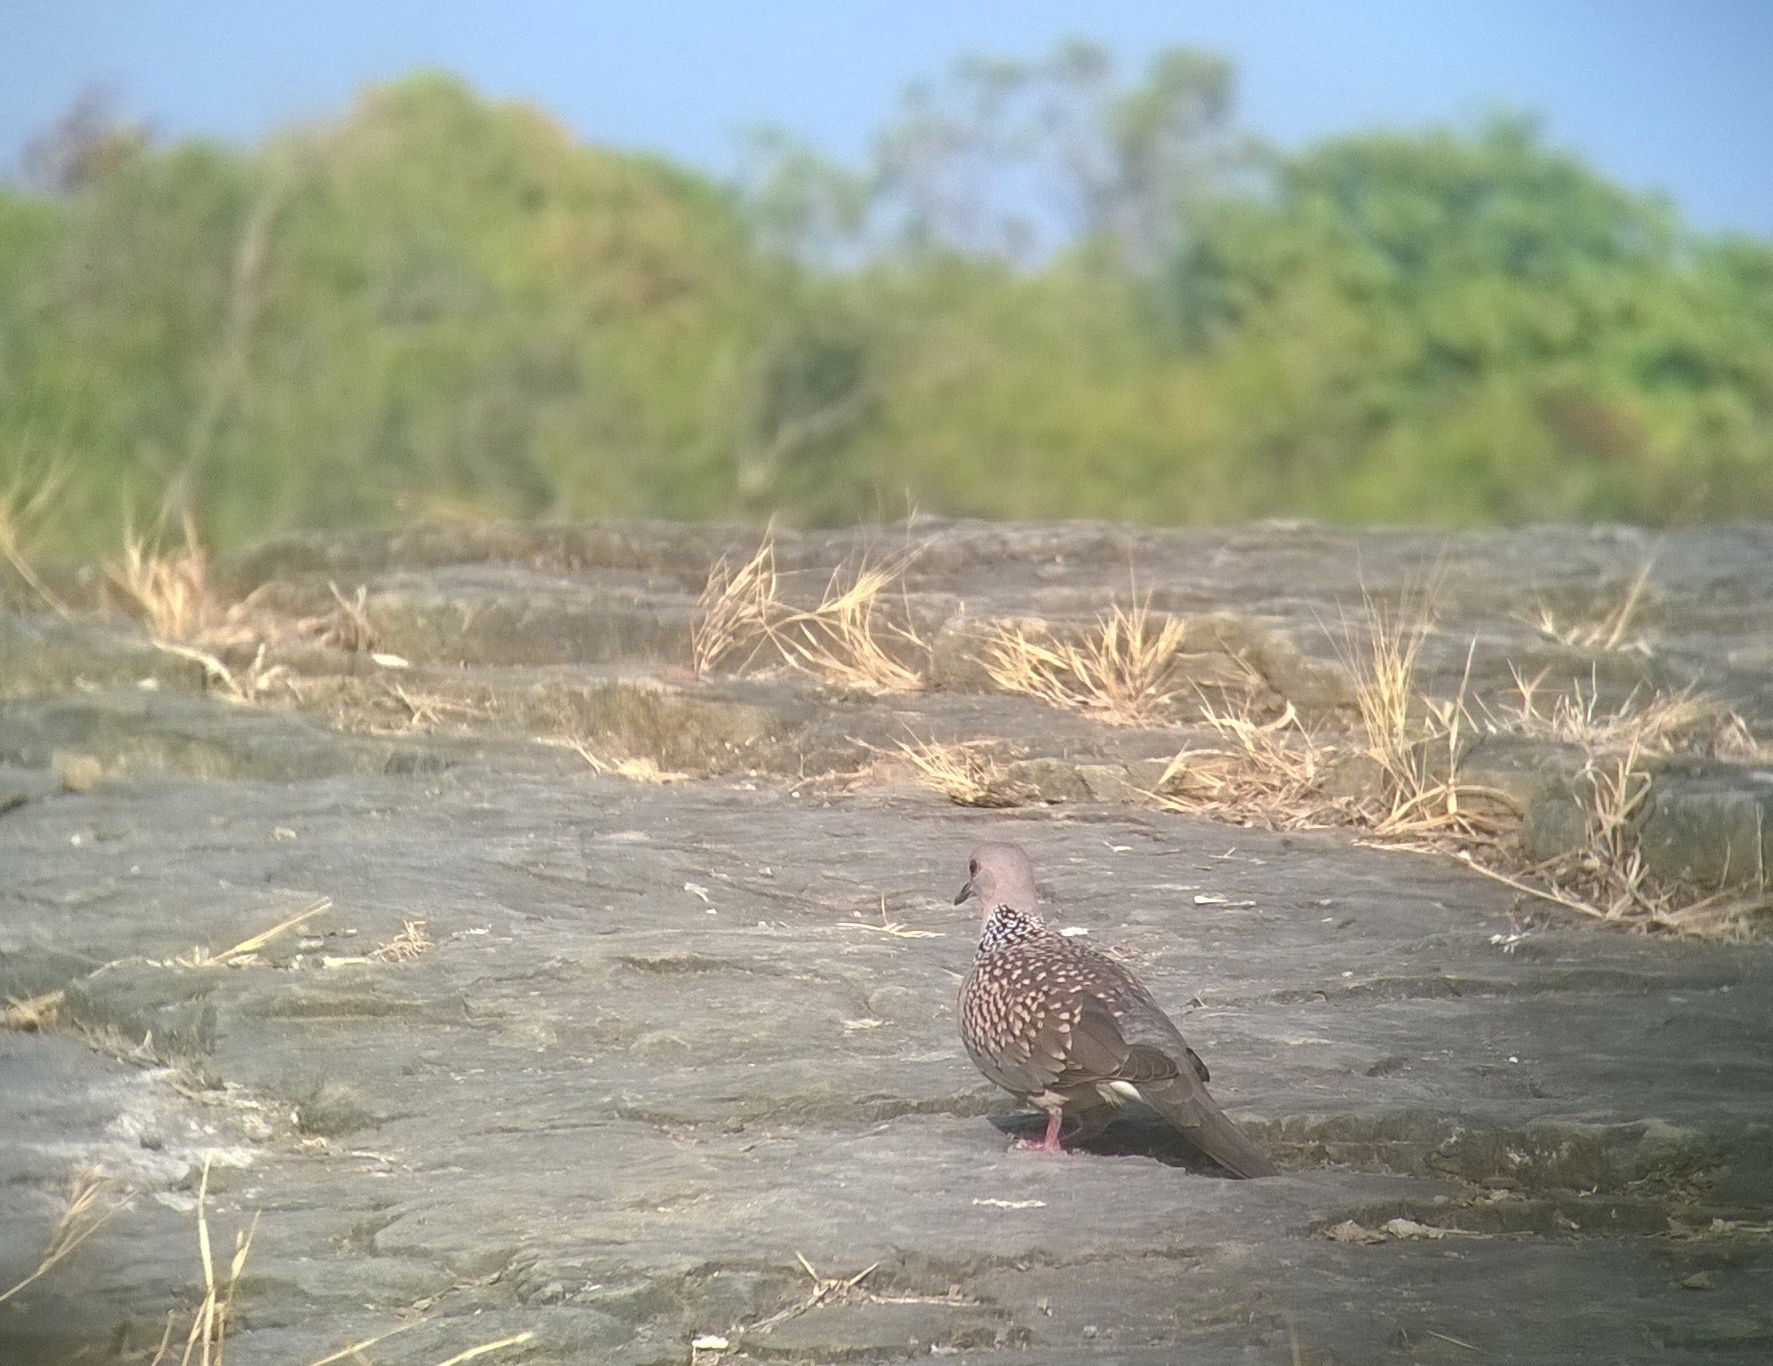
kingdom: Animalia
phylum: Chordata
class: Aves
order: Columbiformes
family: Columbidae
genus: Spilopelia
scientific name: Spilopelia chinensis
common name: Spotted dove
